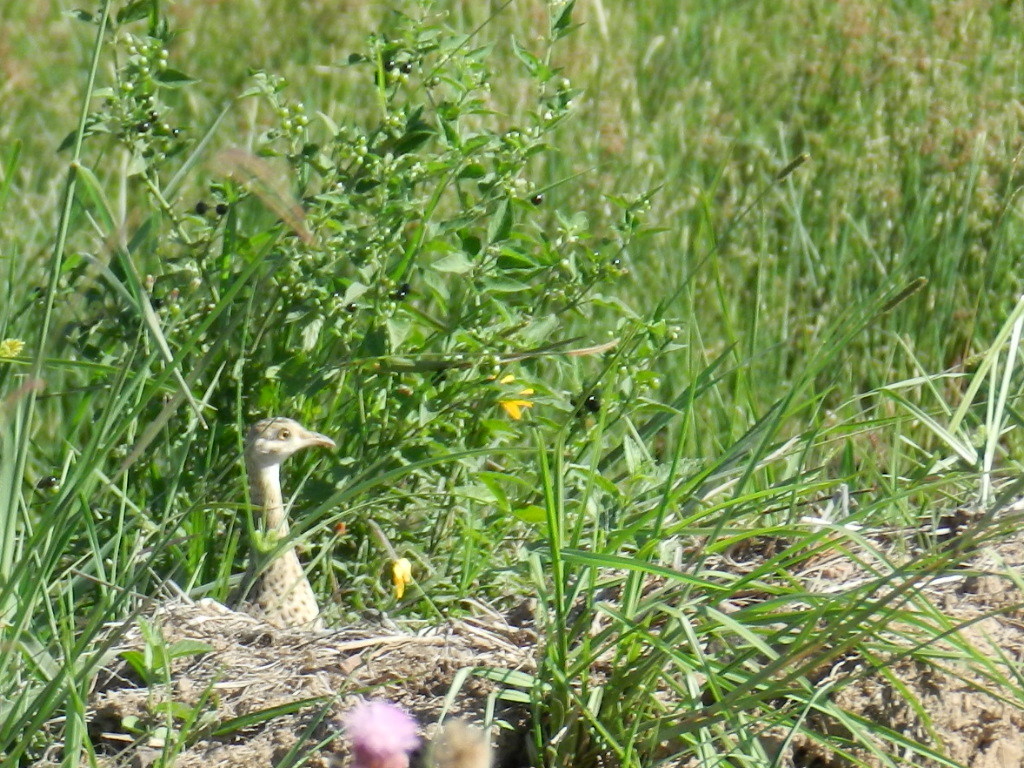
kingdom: Animalia
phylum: Chordata
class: Aves
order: Tinamiformes
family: Tinamidae
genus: Nothura
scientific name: Nothura maculosa
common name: Spotted nothura
